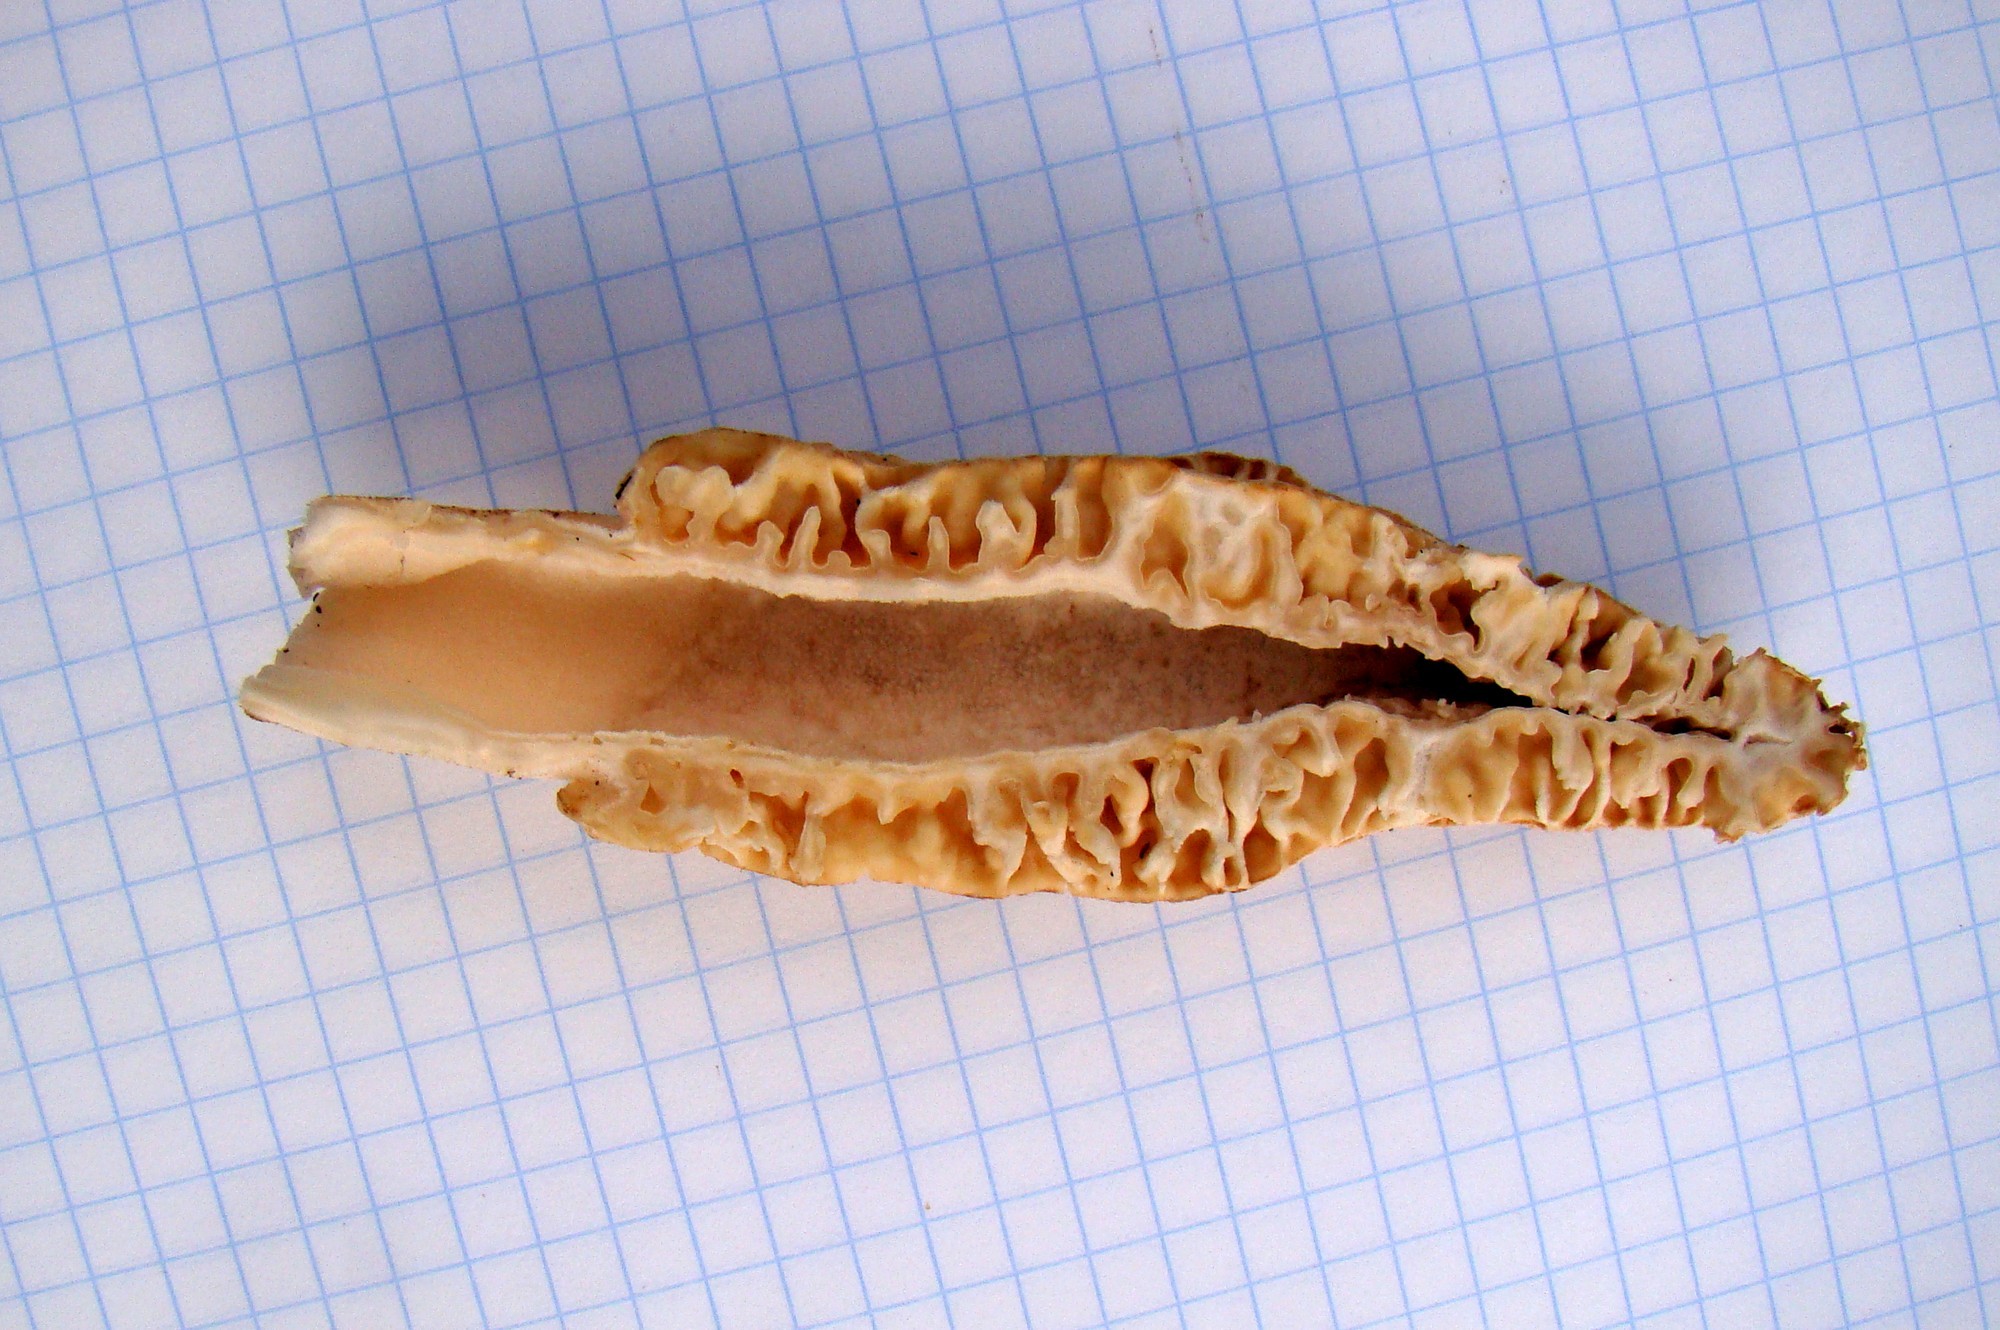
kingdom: Fungi
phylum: Ascomycota
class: Pezizomycetes
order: Pezizales
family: Morchellaceae
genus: Morchella
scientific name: Morchella
